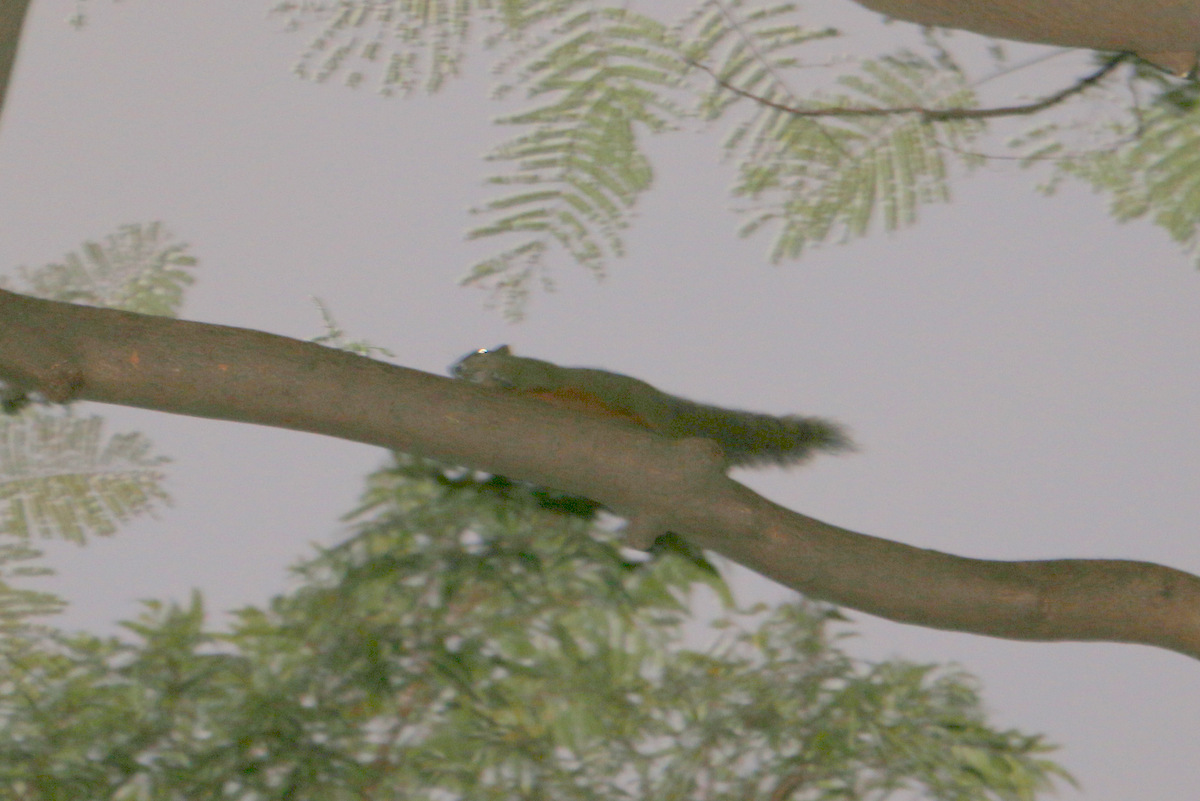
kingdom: Animalia
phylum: Chordata
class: Mammalia
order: Rodentia
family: Sciuridae
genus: Callosciurus
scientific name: Callosciurus erythraeus
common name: Pallas's squirrel
